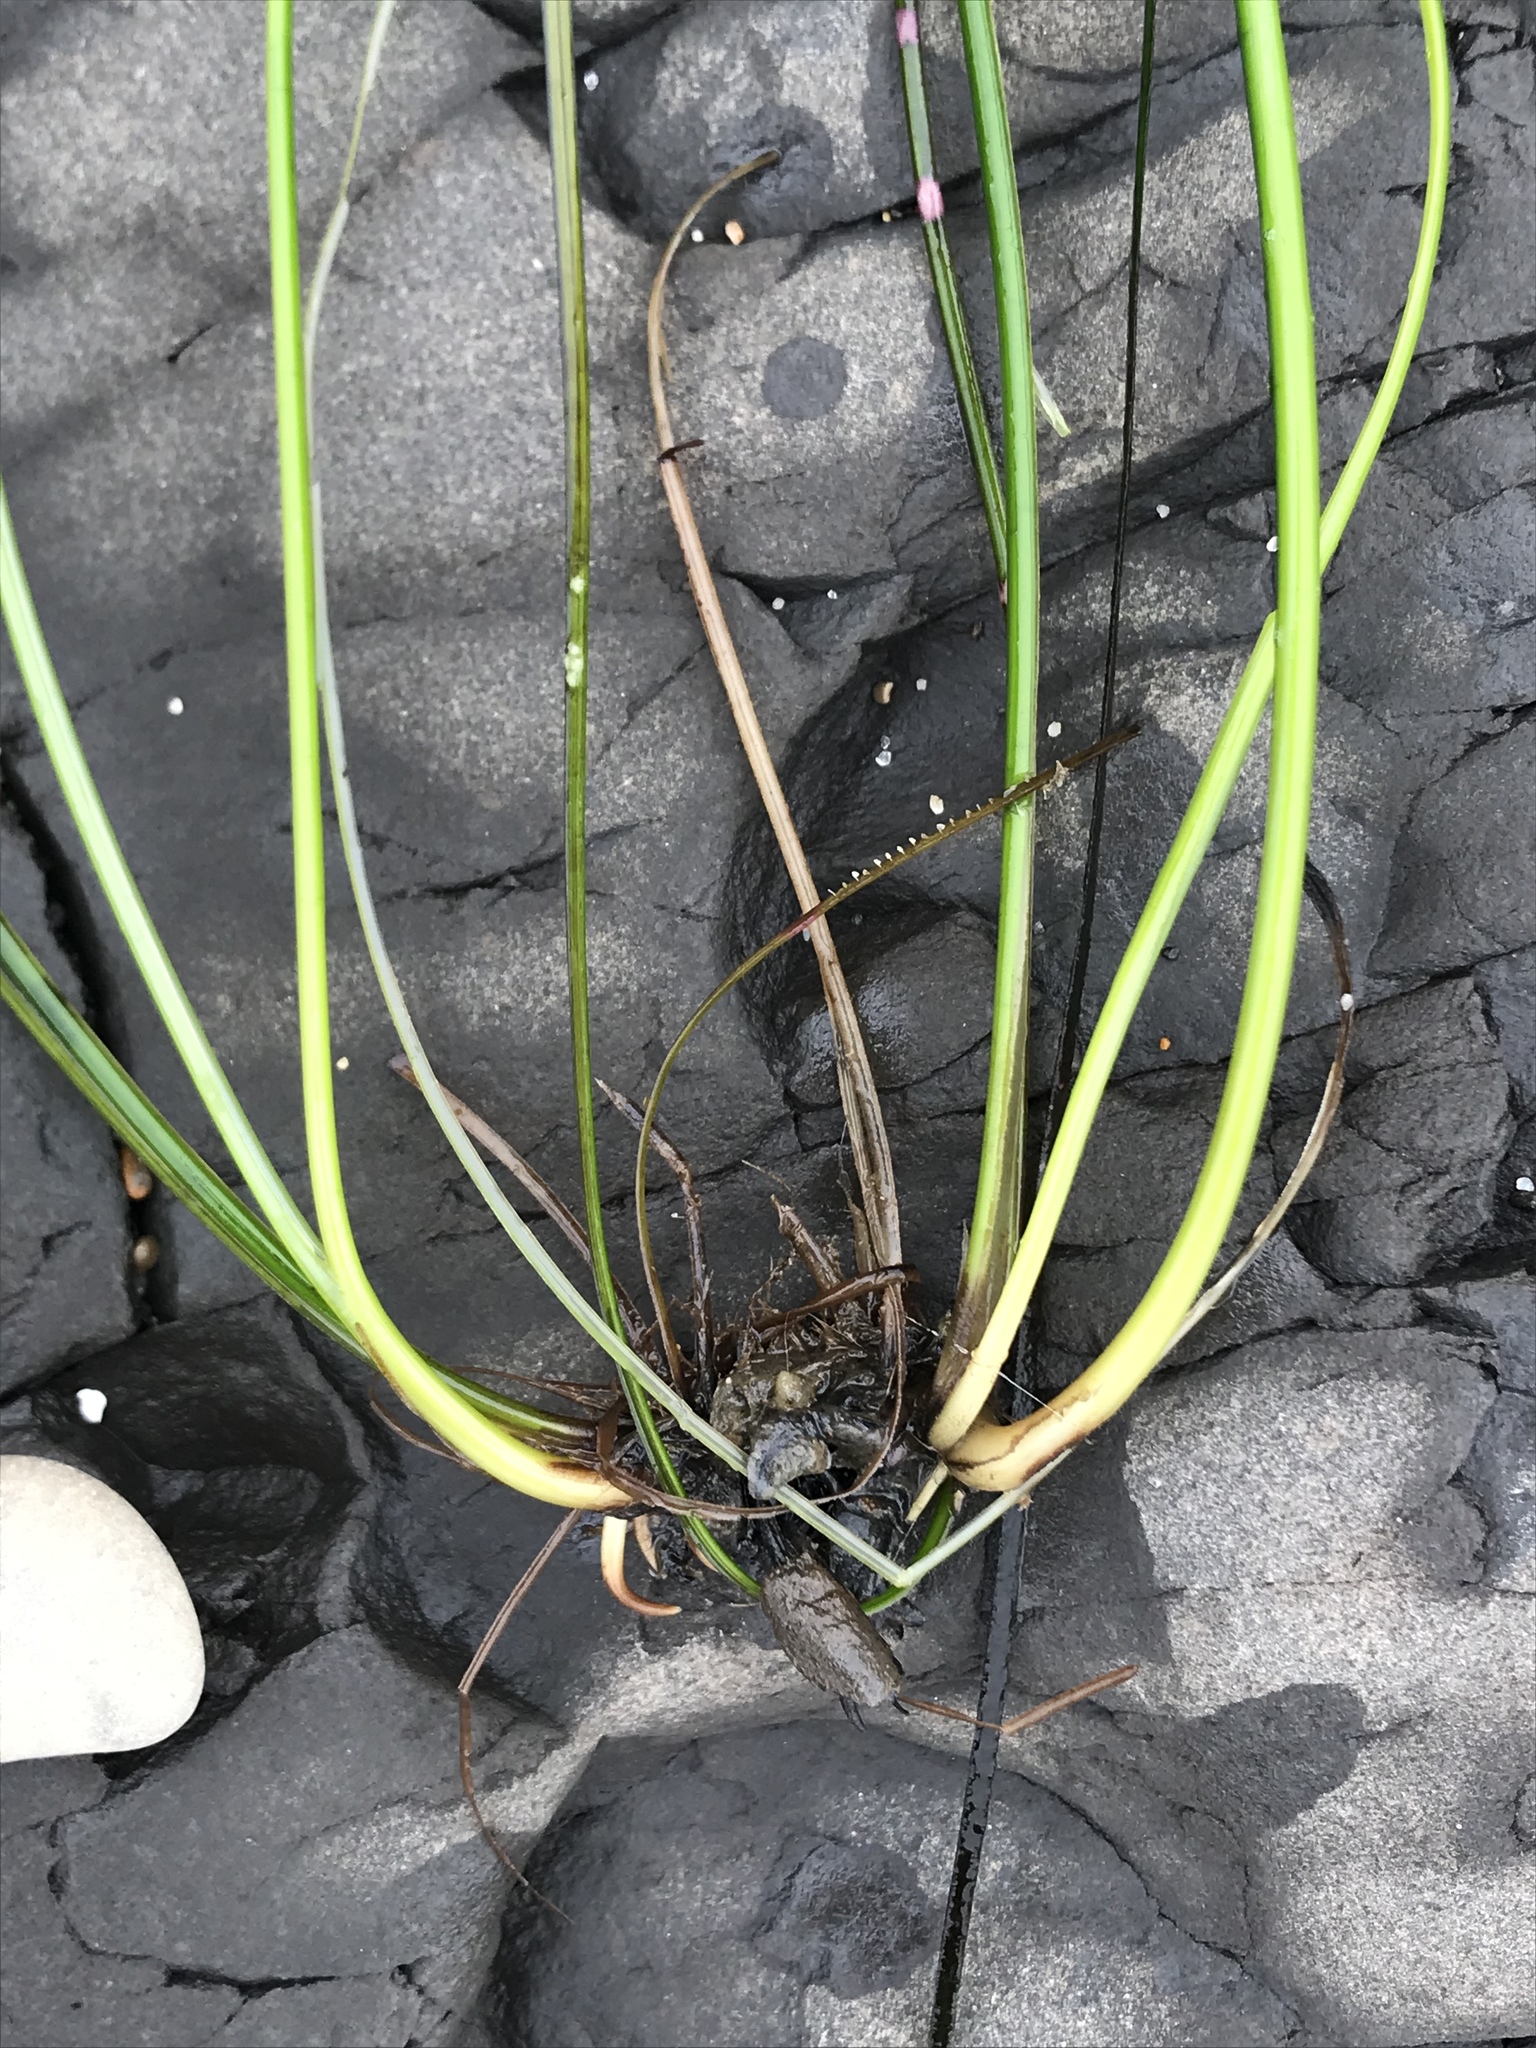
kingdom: Plantae
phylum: Tracheophyta
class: Liliopsida
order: Alismatales
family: Zosteraceae
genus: Phyllospadix
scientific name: Phyllospadix torreyi
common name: Surfgrass
